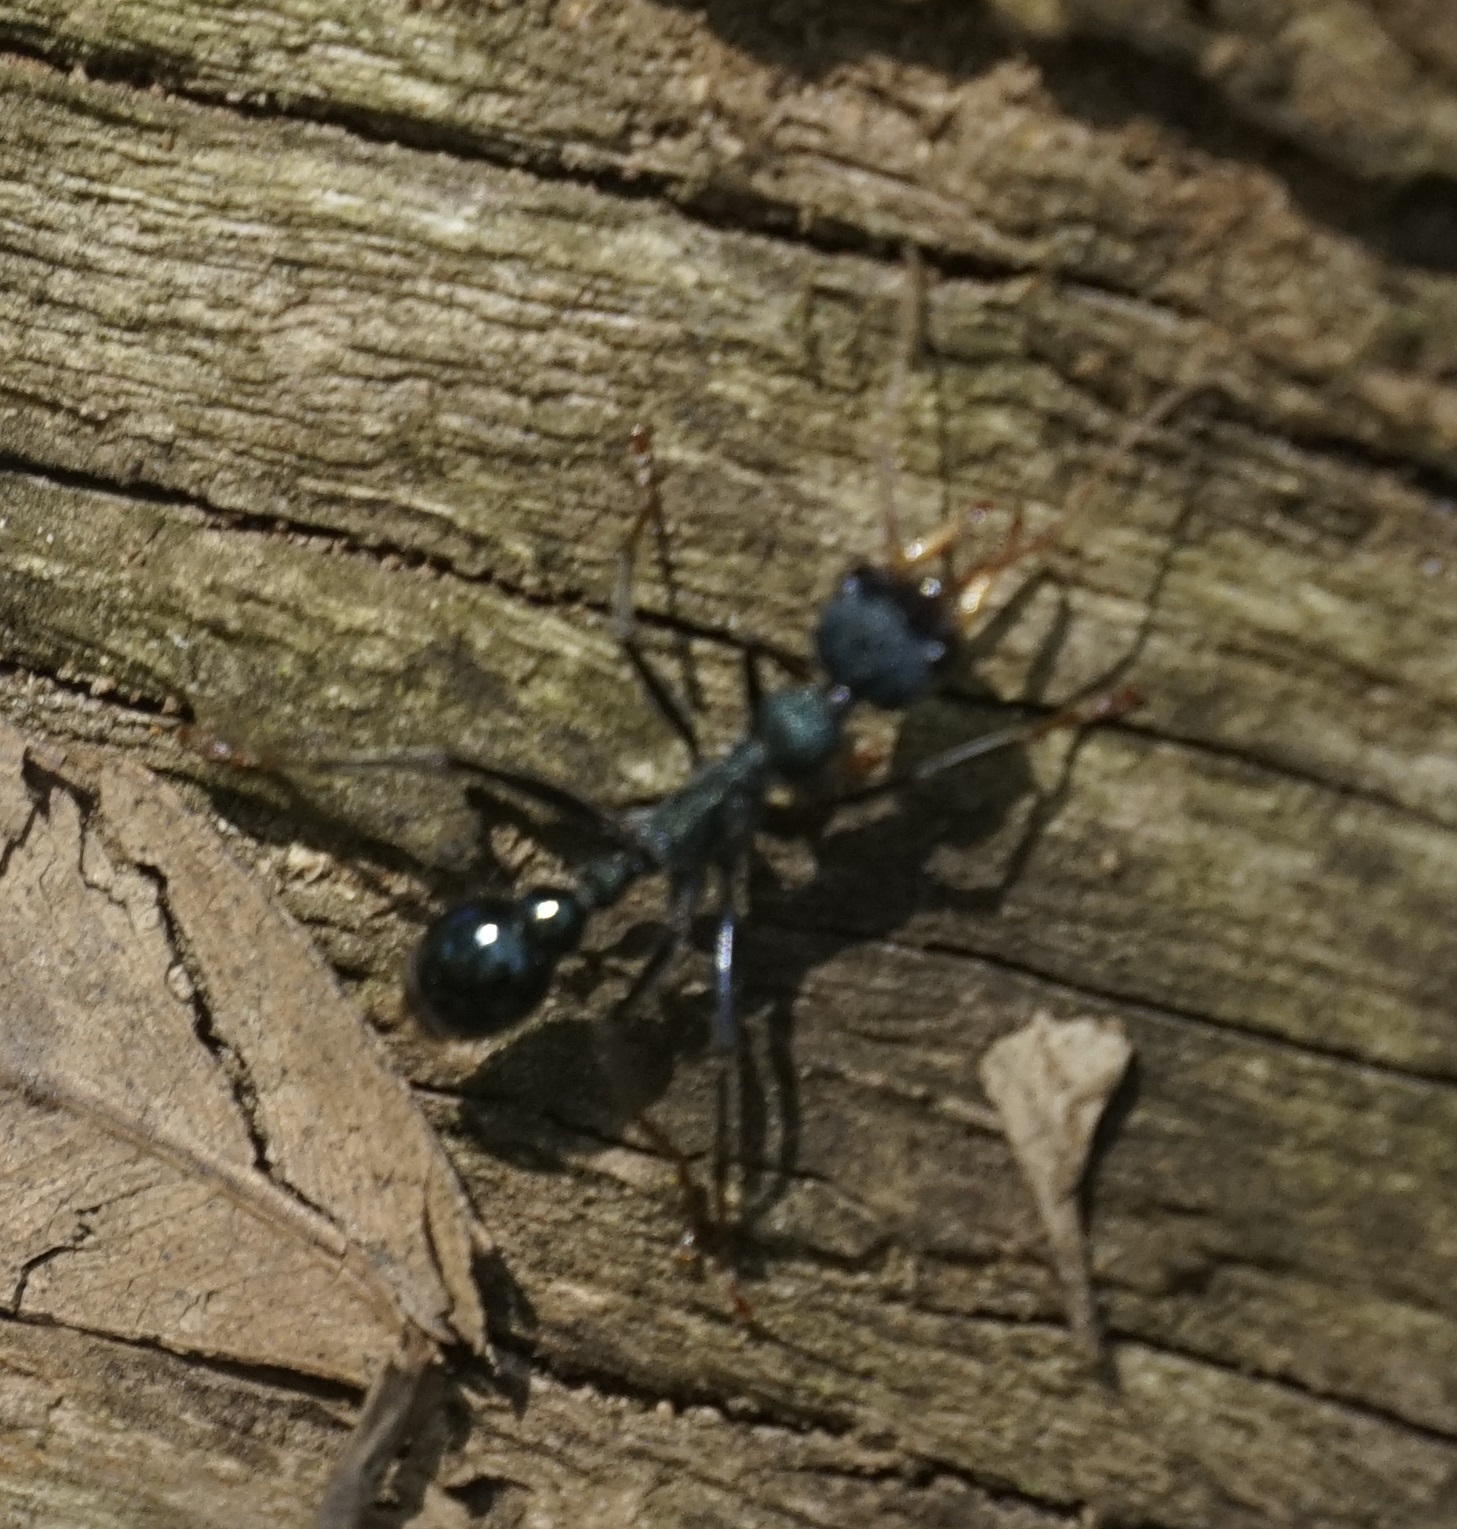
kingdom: Animalia
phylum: Arthropoda
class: Insecta
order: Hymenoptera
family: Formicidae
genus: Myrmecia
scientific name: Myrmecia tarsata
